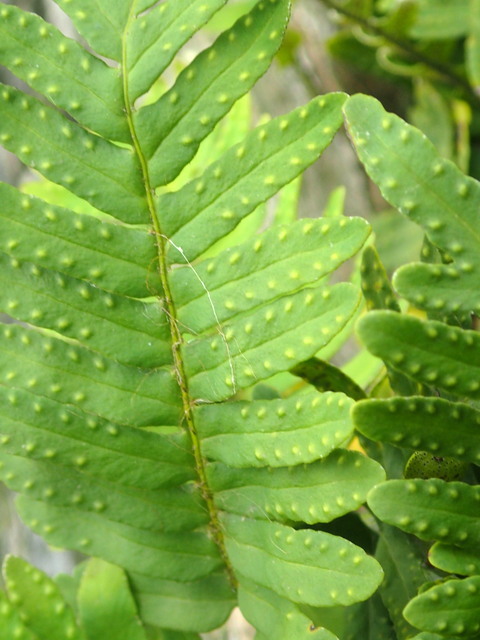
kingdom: Plantae
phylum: Tracheophyta
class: Polypodiopsida
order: Polypodiales
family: Polypodiaceae
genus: Pleopeltis
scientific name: Pleopeltis michauxiana
